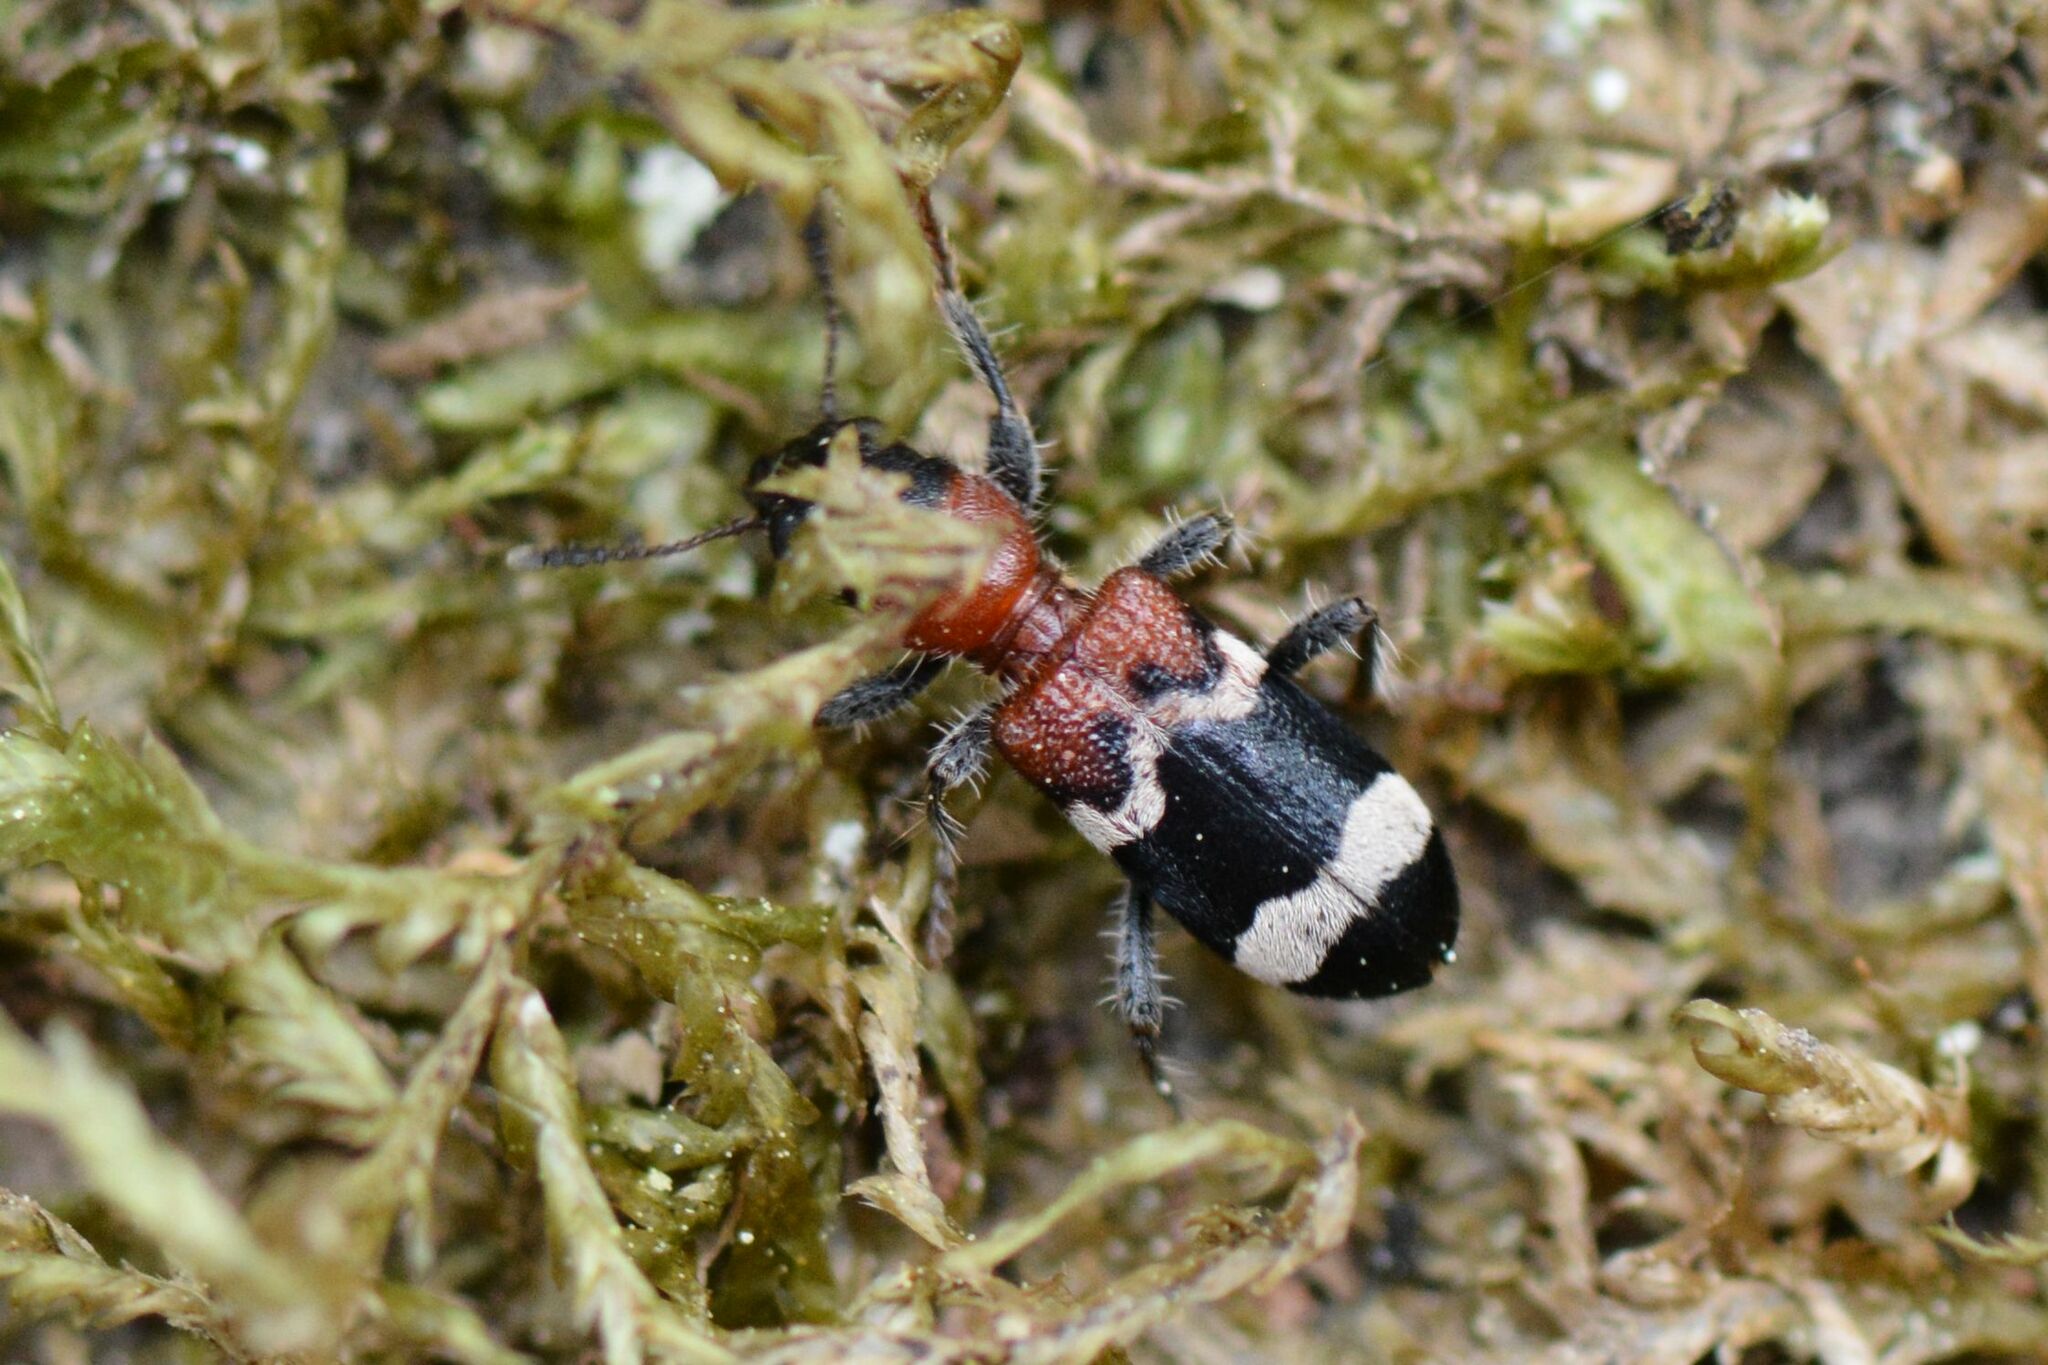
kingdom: Animalia
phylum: Arthropoda
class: Insecta
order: Coleoptera
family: Cleridae
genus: Thanasimus
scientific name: Thanasimus formicarius
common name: Ant beetle
